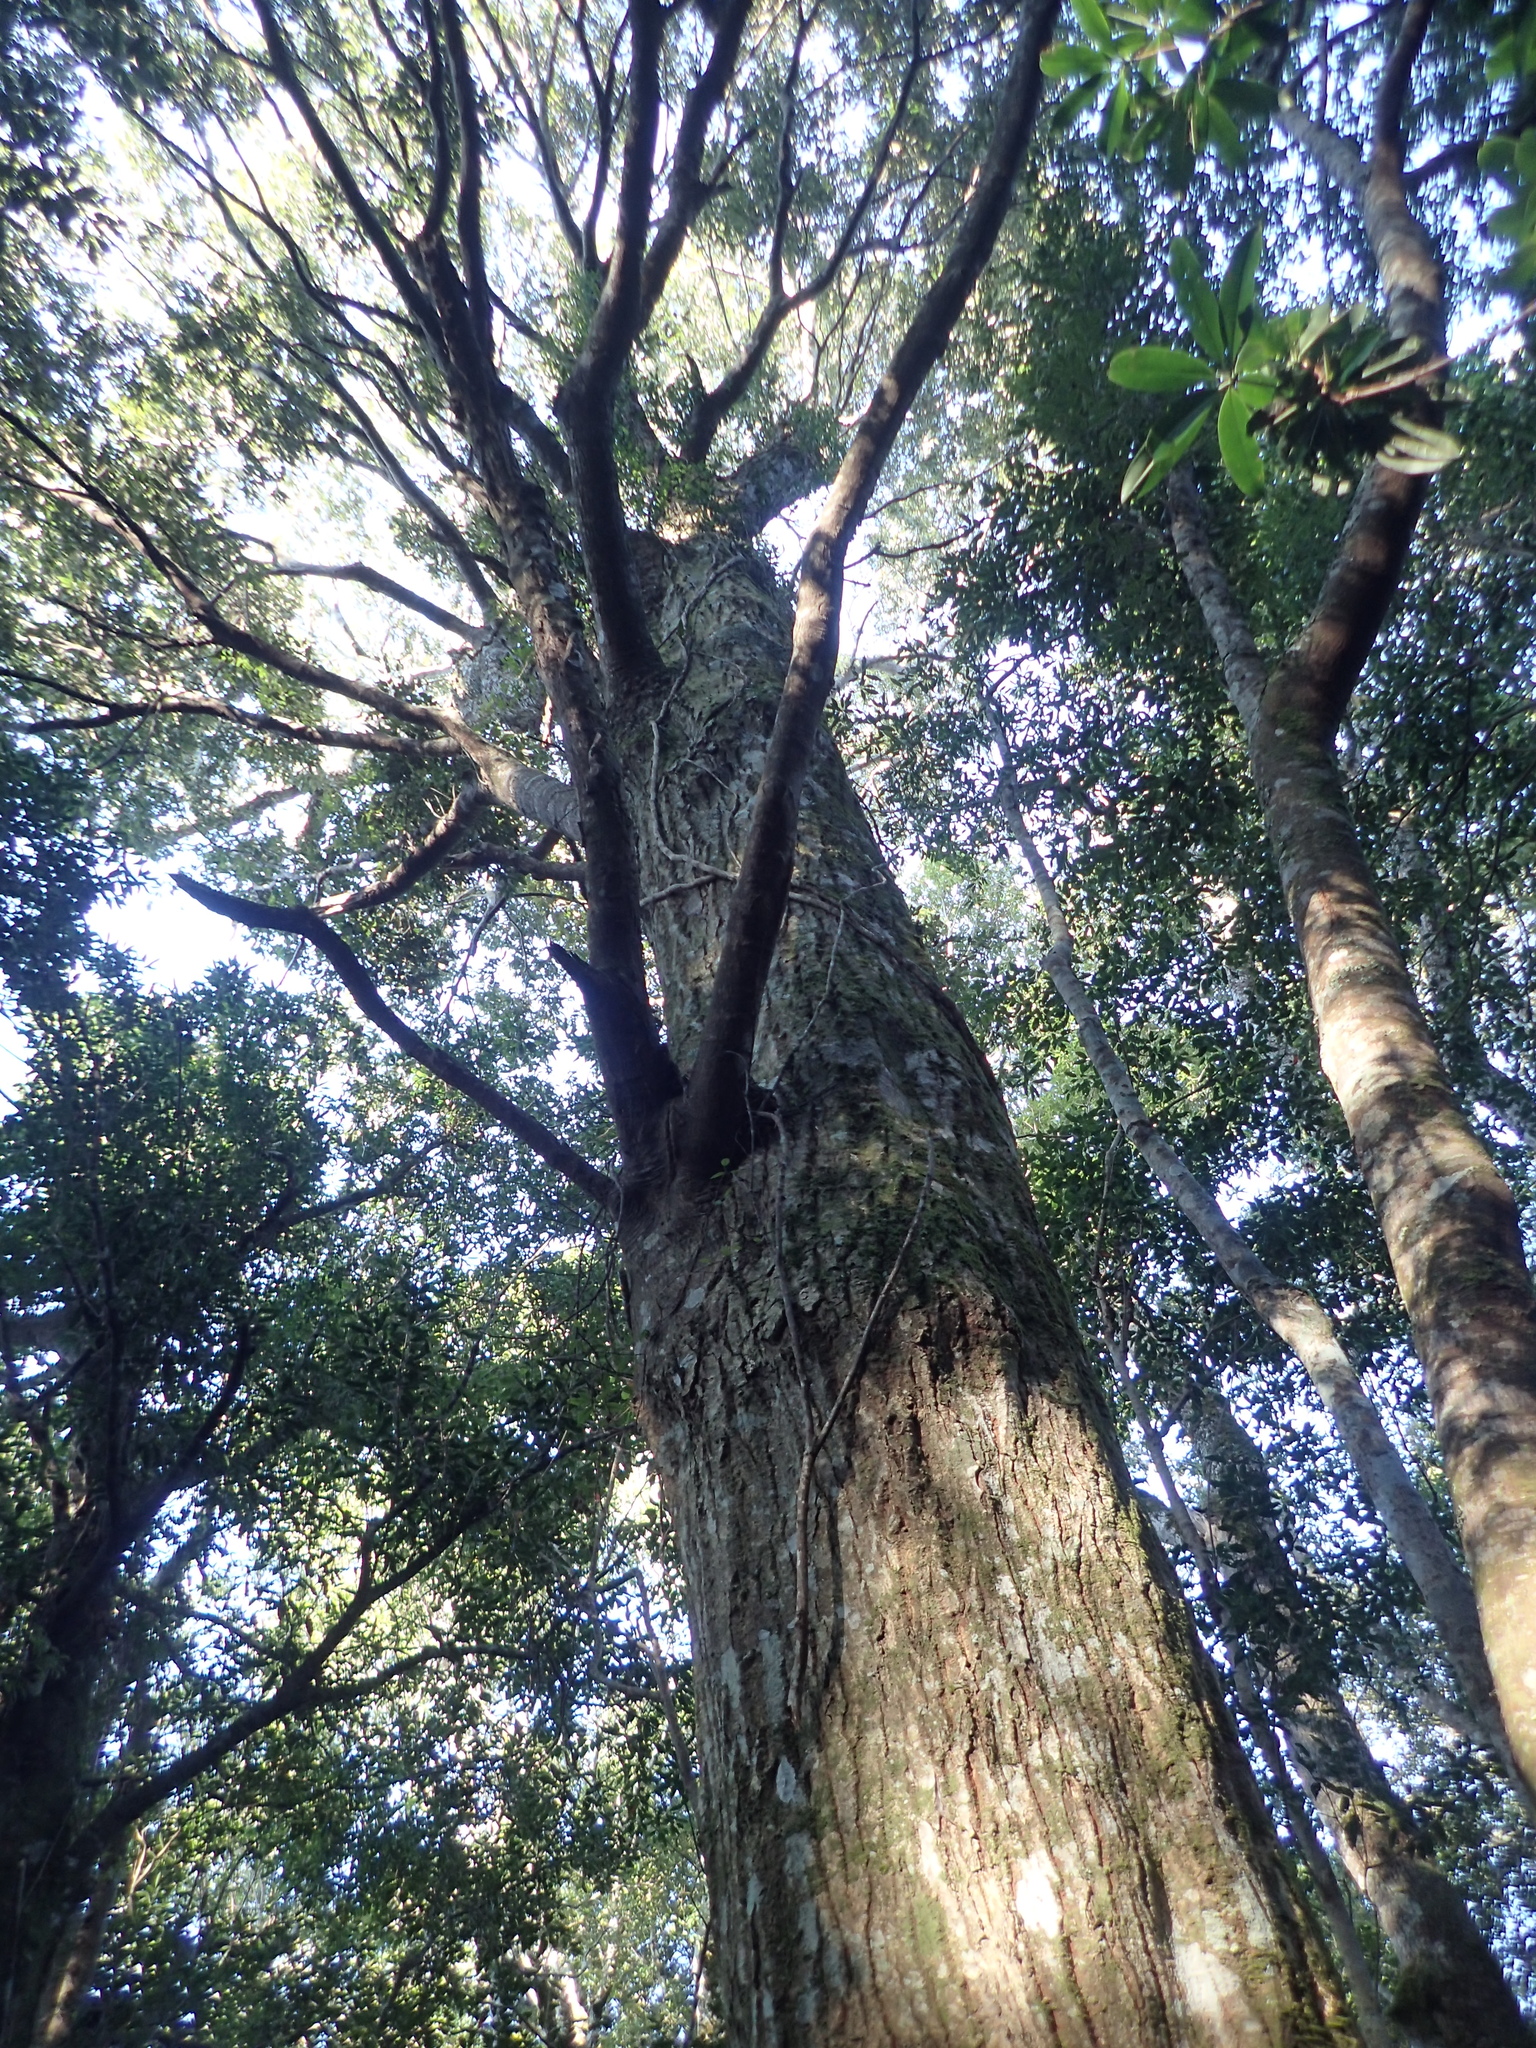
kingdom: Plantae
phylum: Tracheophyta
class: Magnoliopsida
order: Fagales
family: Fagaceae
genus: Castanopsis
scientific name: Castanopsis carlesii
